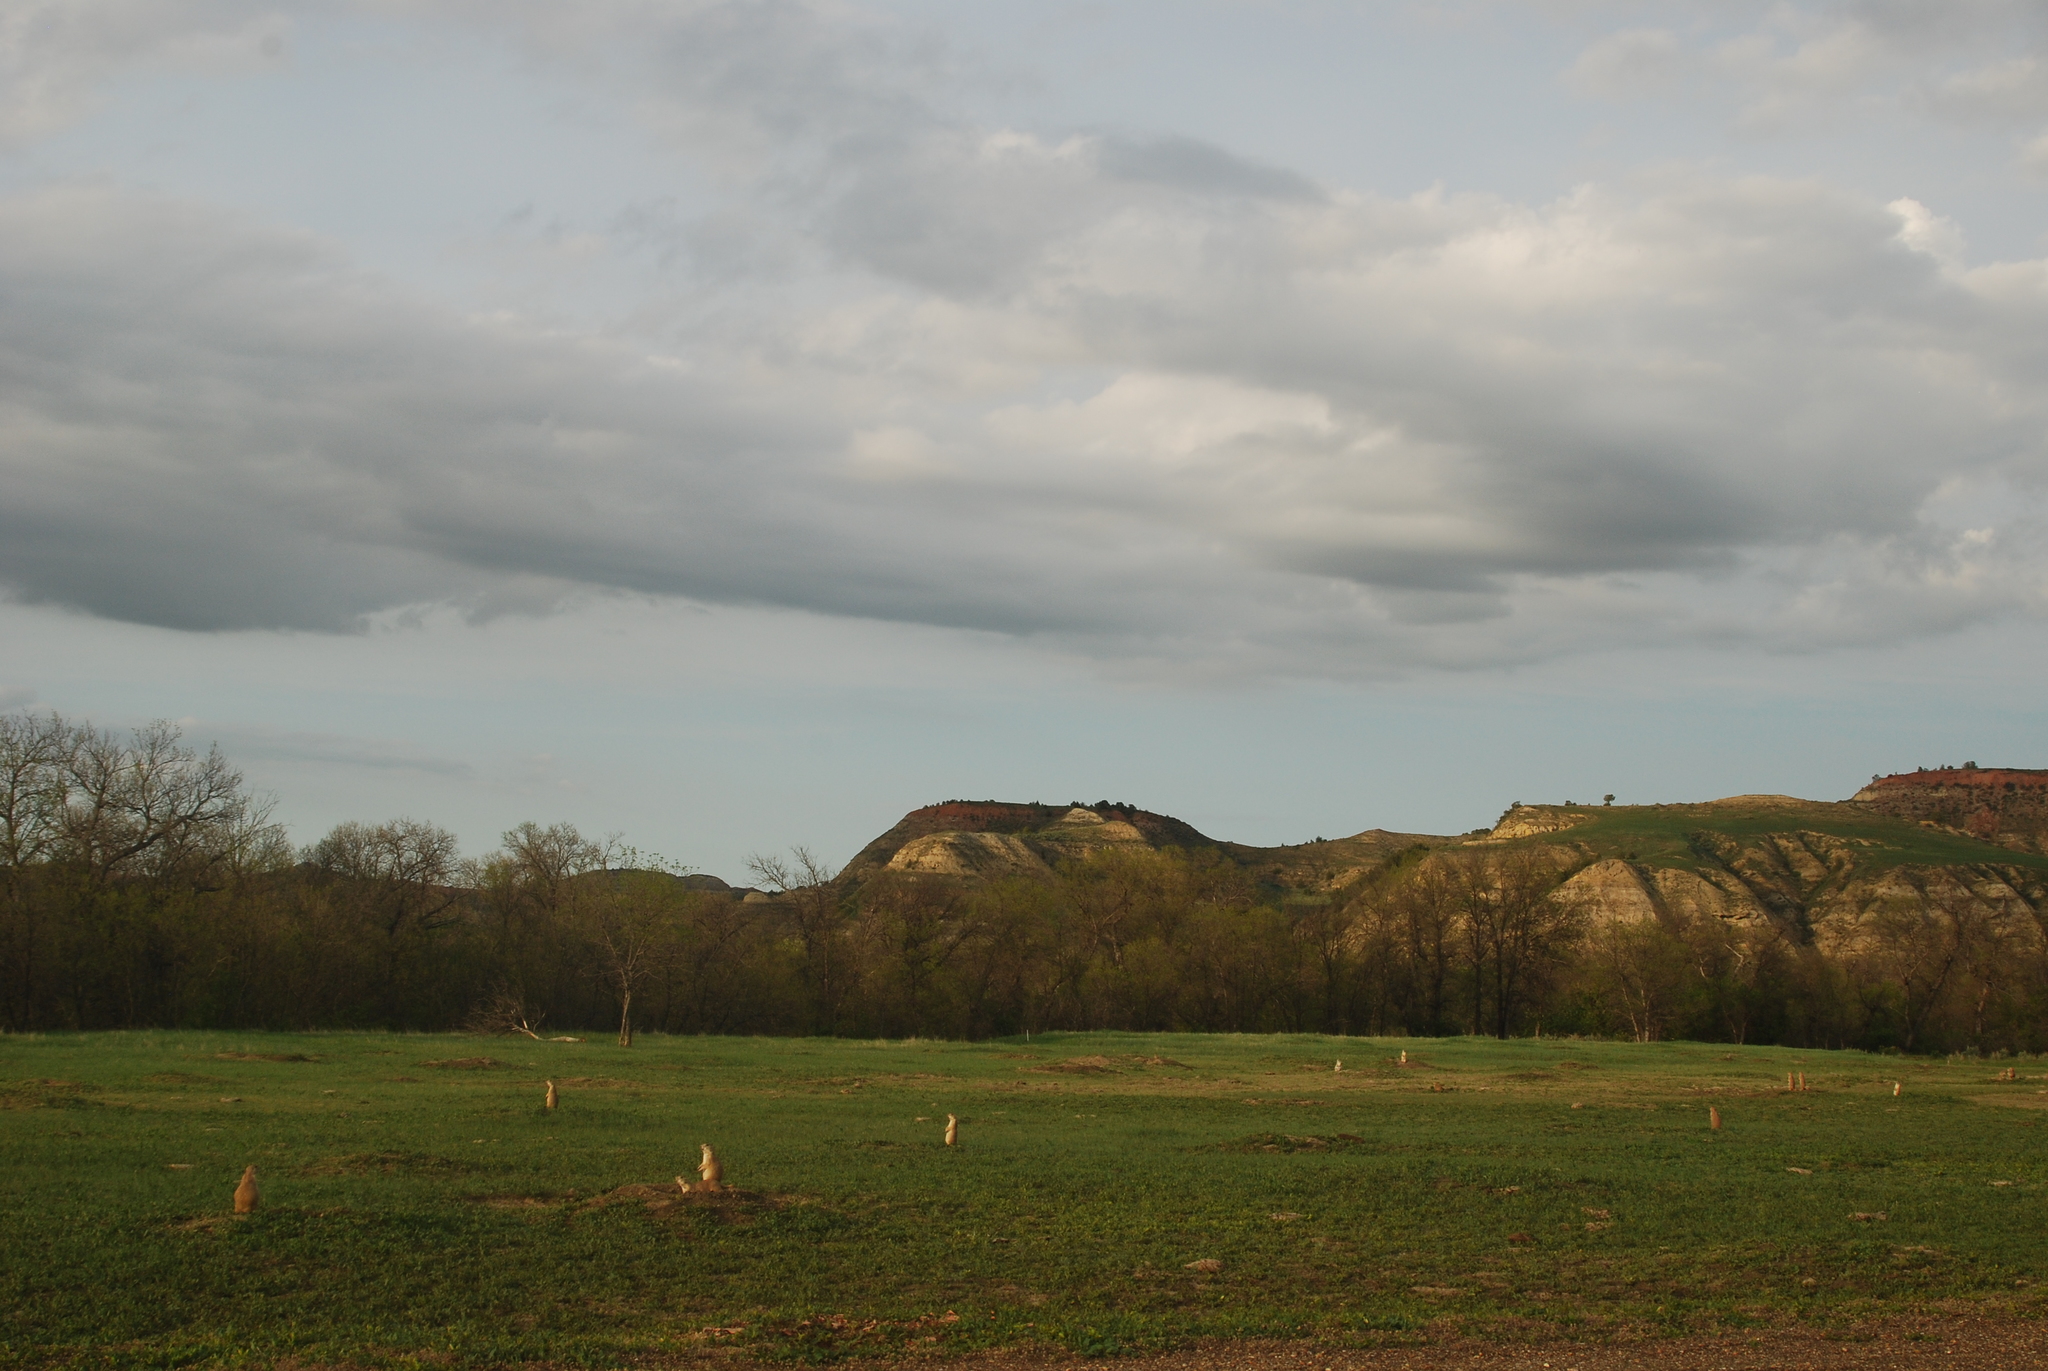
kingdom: Animalia
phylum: Chordata
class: Mammalia
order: Rodentia
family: Sciuridae
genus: Cynomys
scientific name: Cynomys ludovicianus
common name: Black-tailed prairie dog
